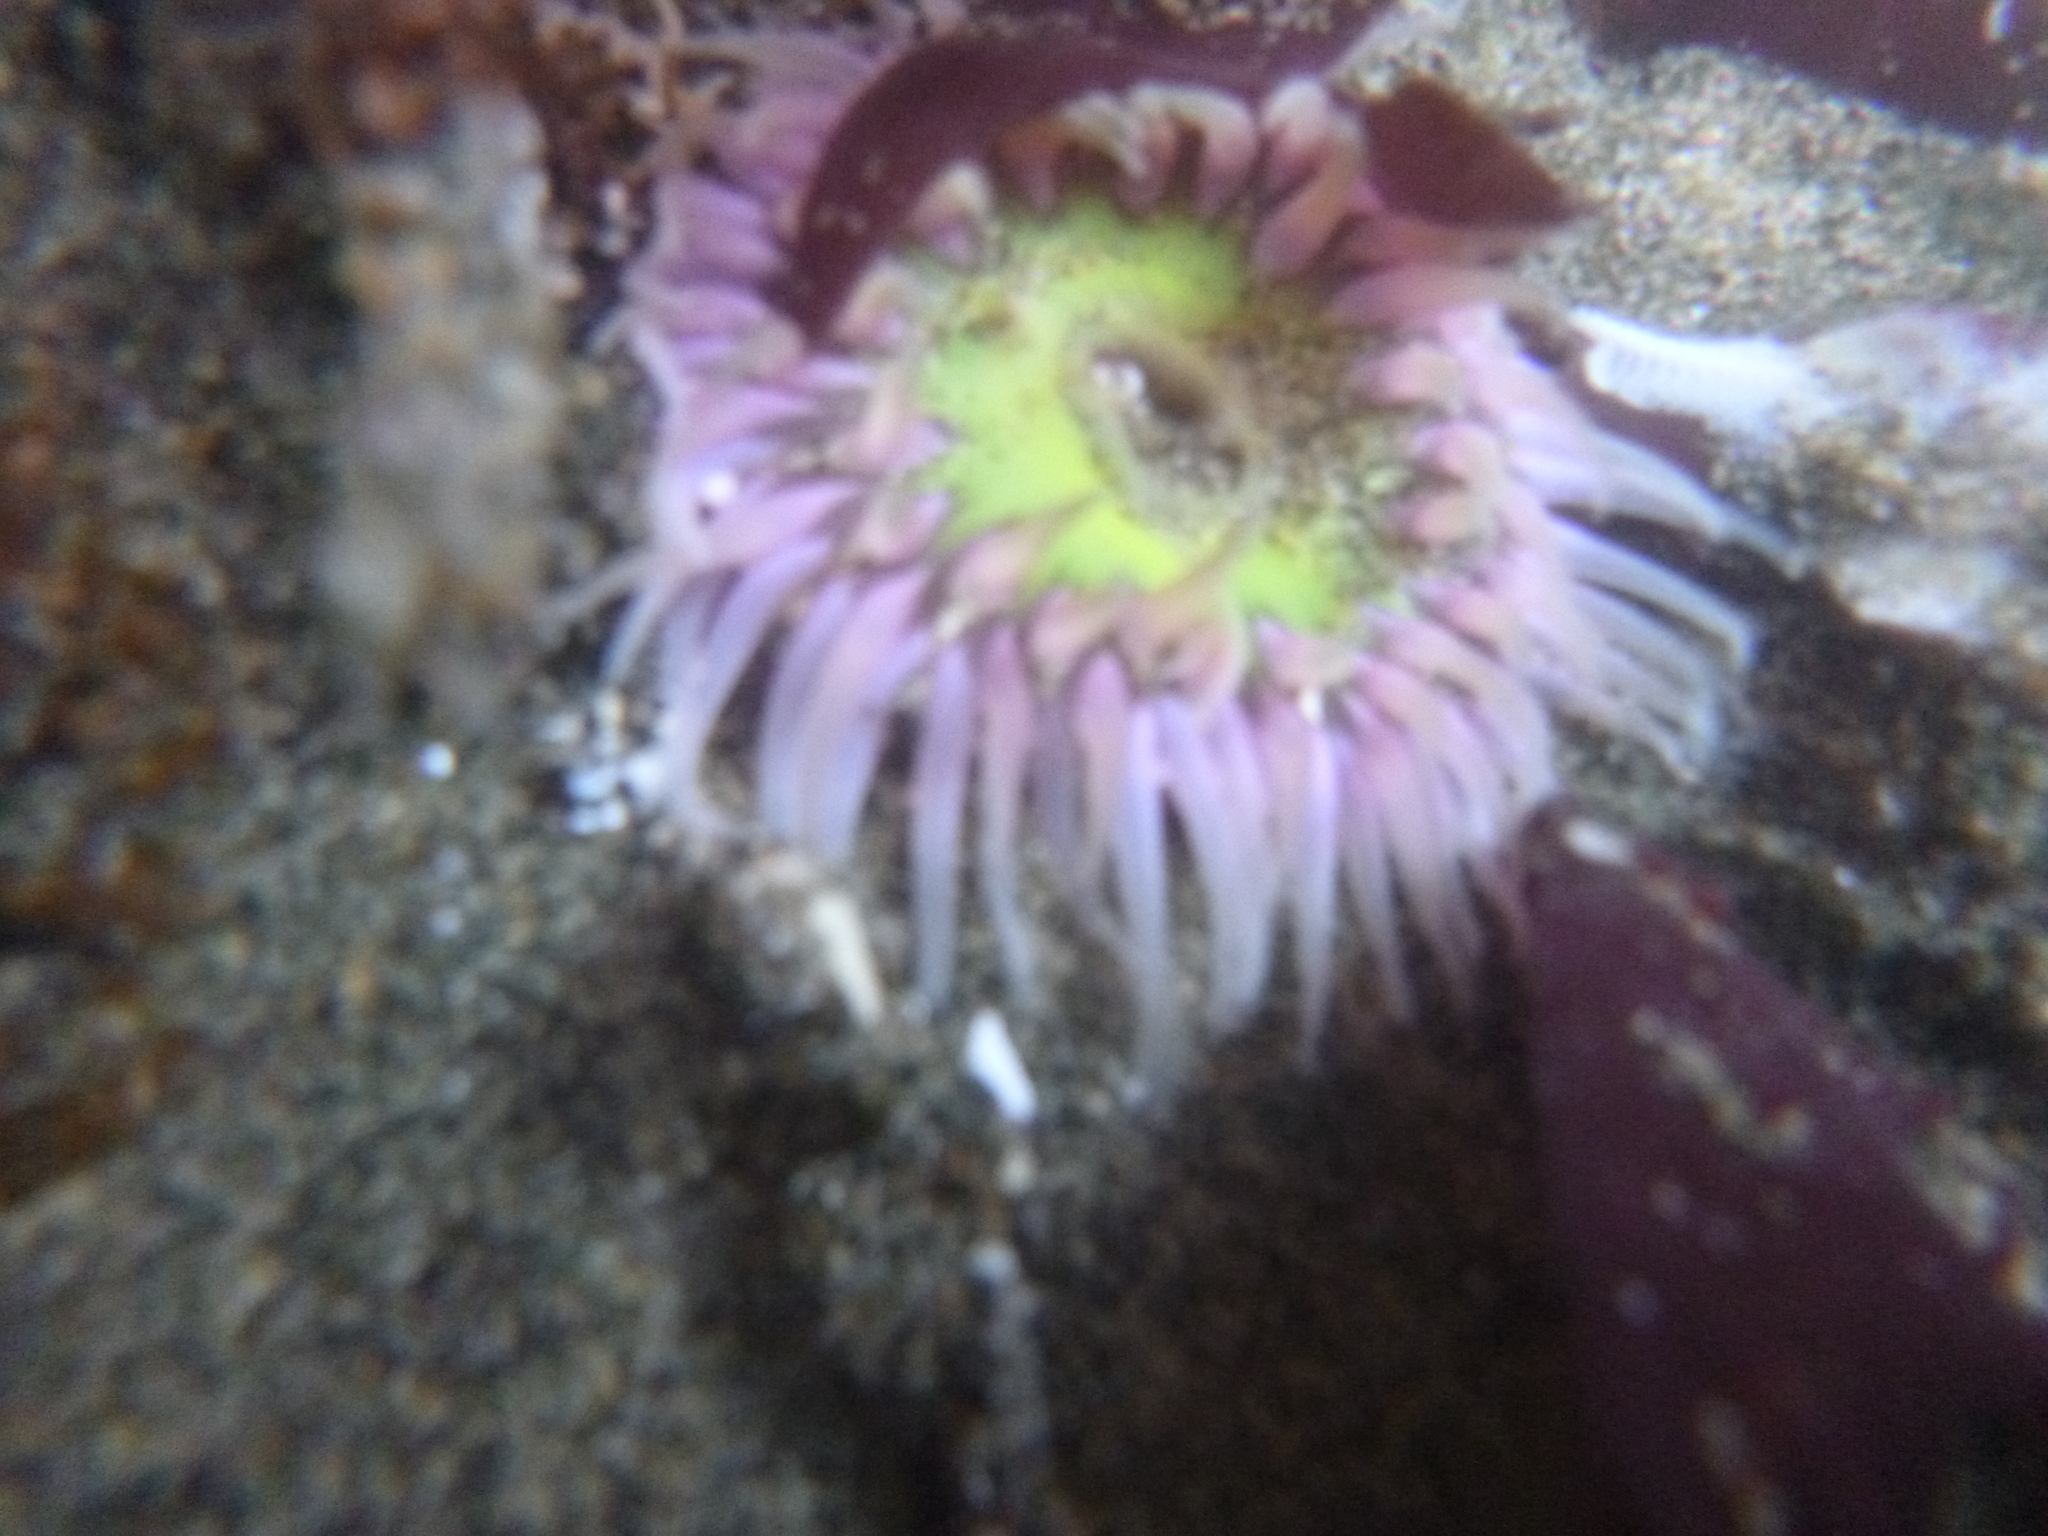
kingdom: Animalia
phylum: Cnidaria
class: Anthozoa
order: Actiniaria
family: Actiniidae
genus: Oulactis
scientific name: Oulactis magna
